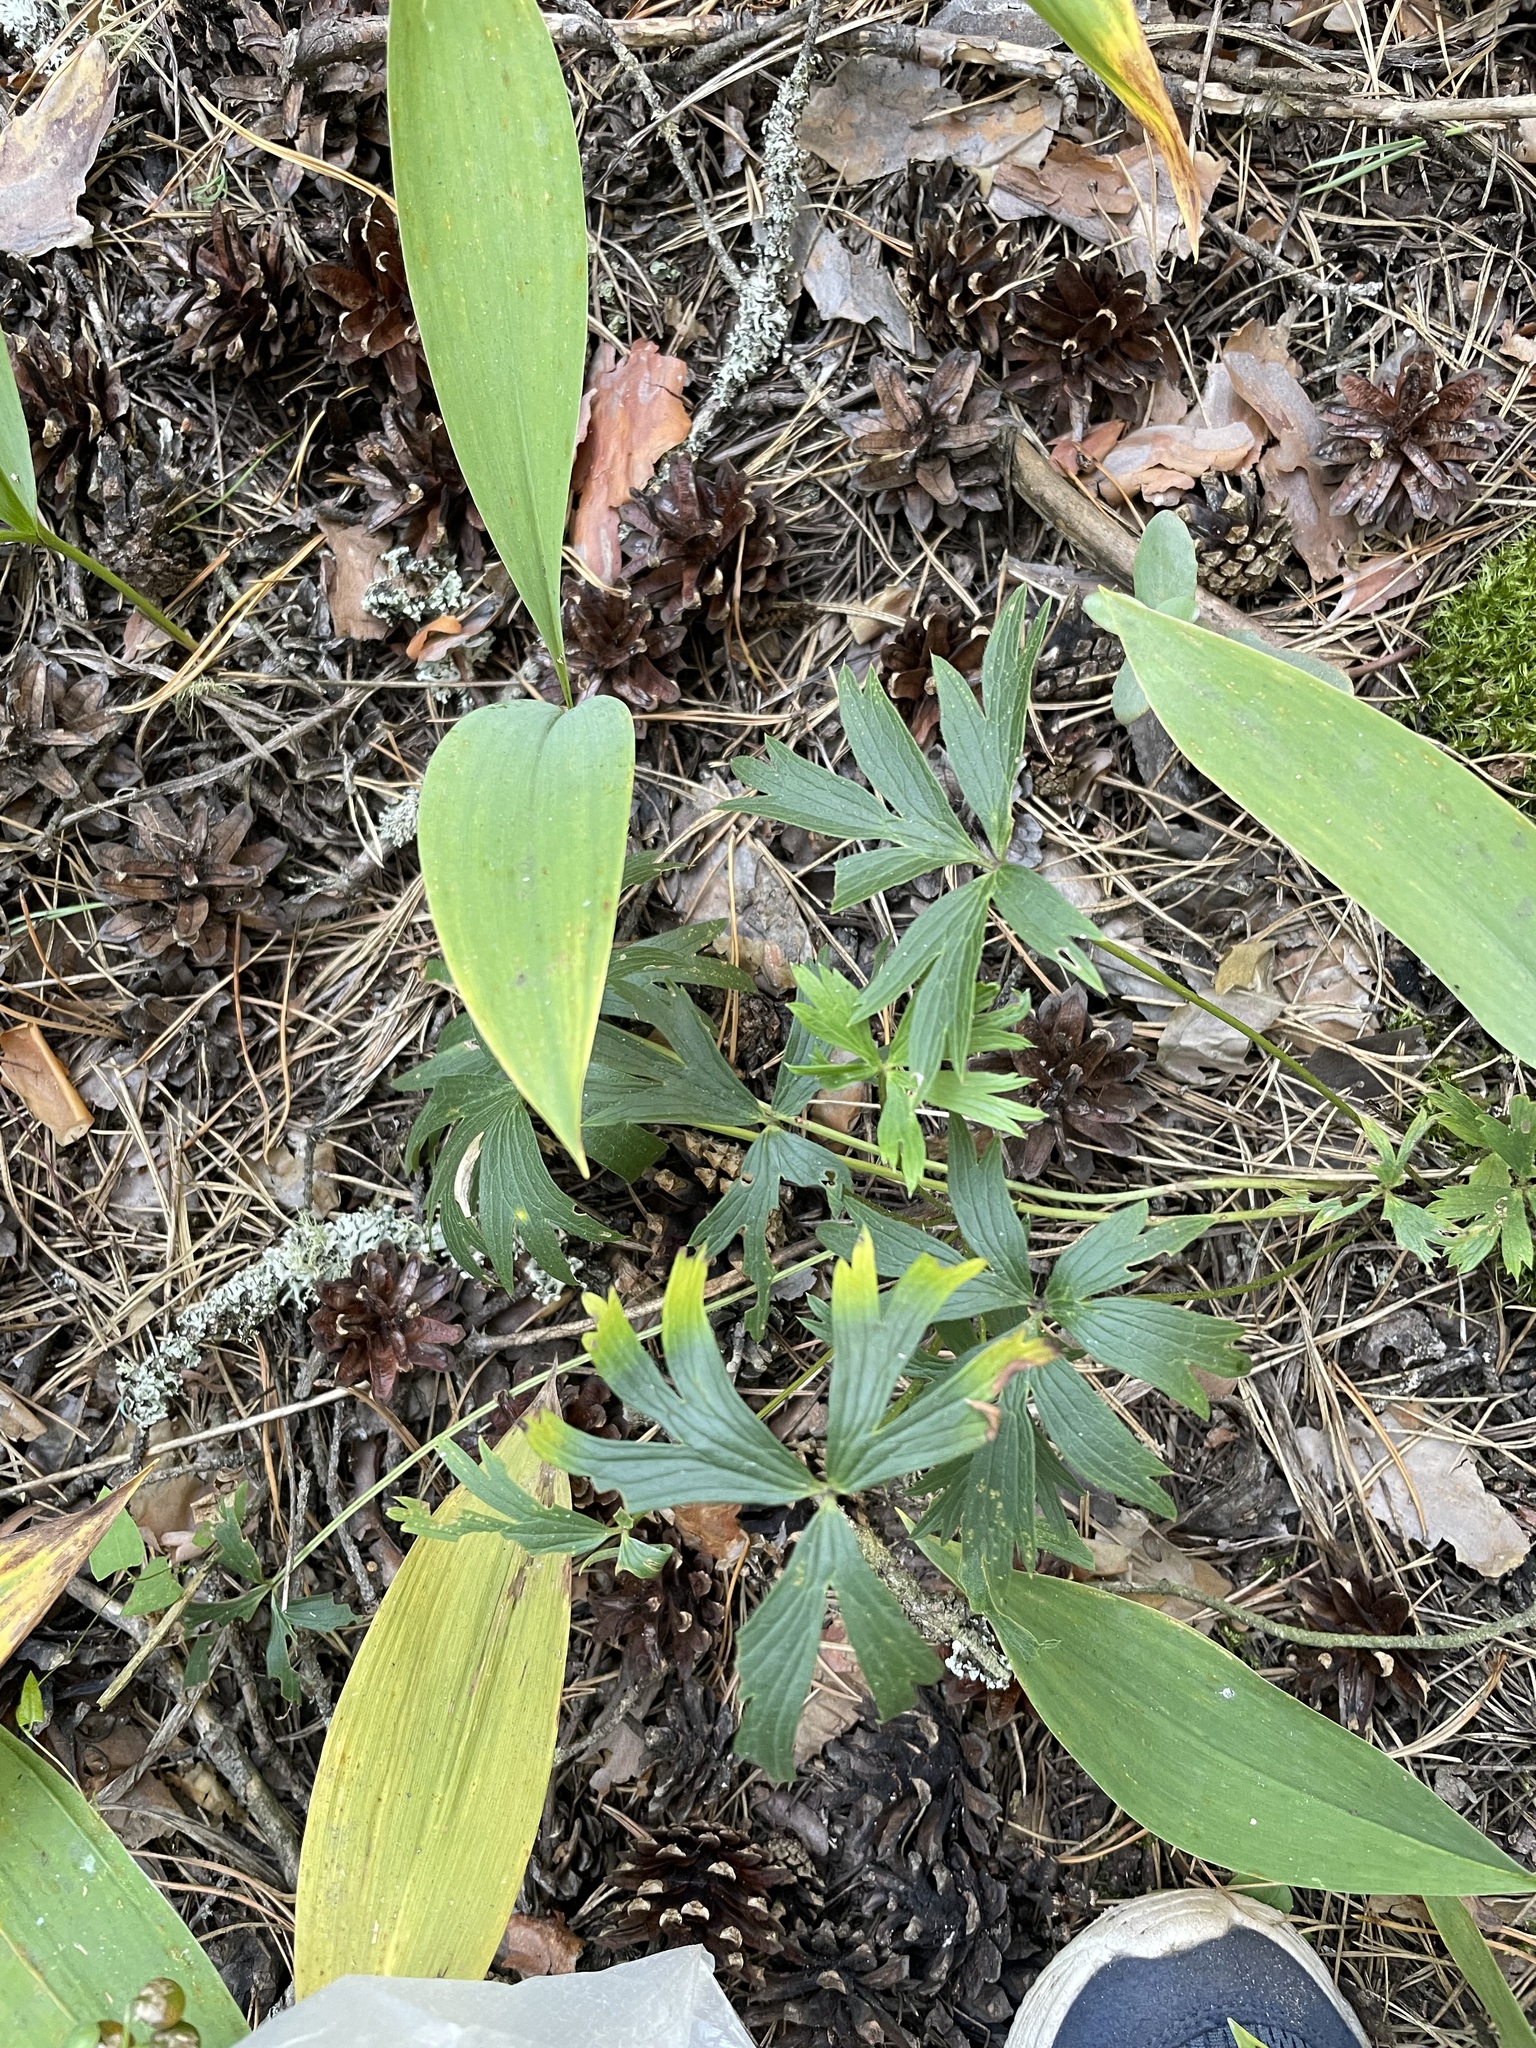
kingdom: Plantae
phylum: Tracheophyta
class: Magnoliopsida
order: Ranunculales
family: Ranunculaceae
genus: Pulsatilla
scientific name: Pulsatilla patens
